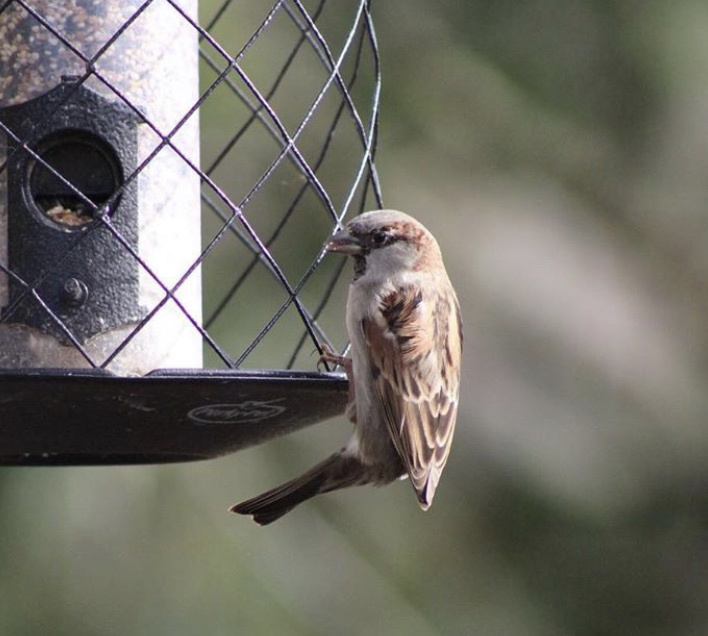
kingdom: Animalia
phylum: Chordata
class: Aves
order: Passeriformes
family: Passeridae
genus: Passer
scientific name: Passer domesticus
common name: House sparrow
